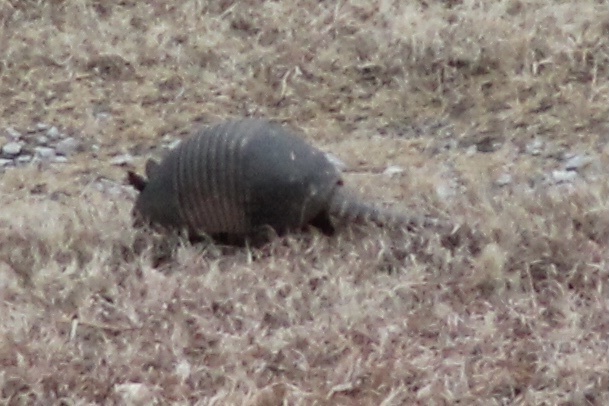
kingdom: Animalia
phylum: Chordata
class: Mammalia
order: Cingulata
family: Dasypodidae
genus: Dasypus
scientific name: Dasypus novemcinctus
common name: Nine-banded armadillo
